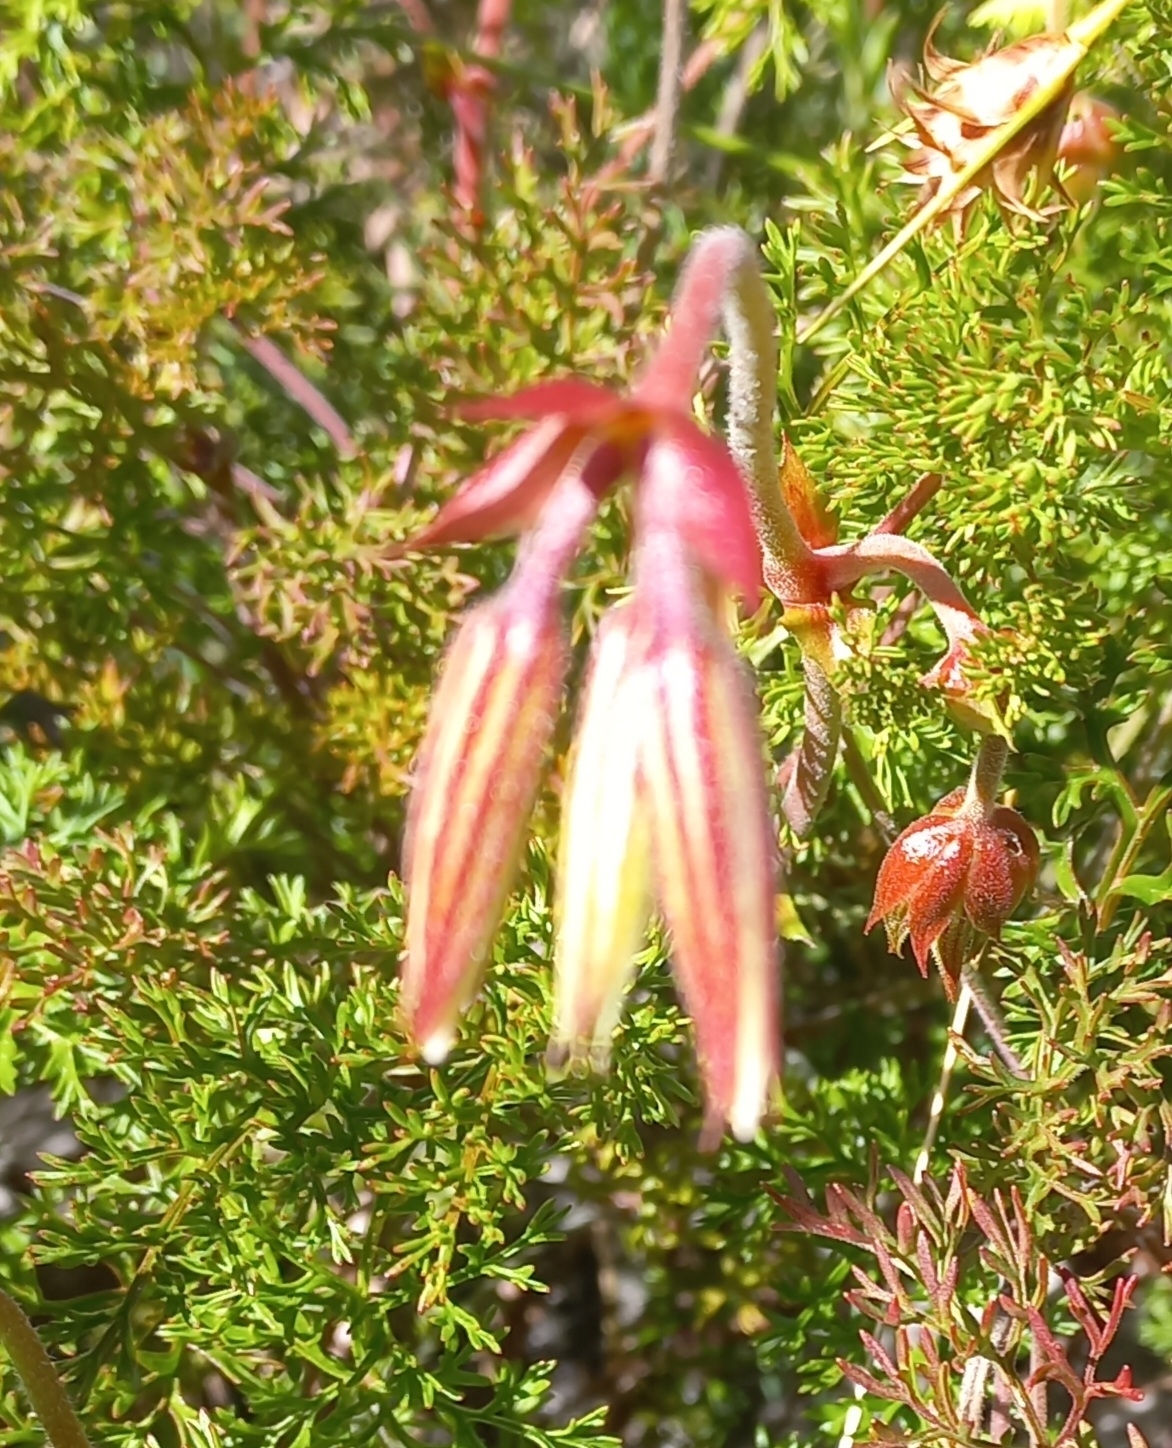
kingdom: Plantae
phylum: Tracheophyta
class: Magnoliopsida
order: Geraniales
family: Geraniaceae
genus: Pelargonium
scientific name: Pelargonium myrrhifolium
